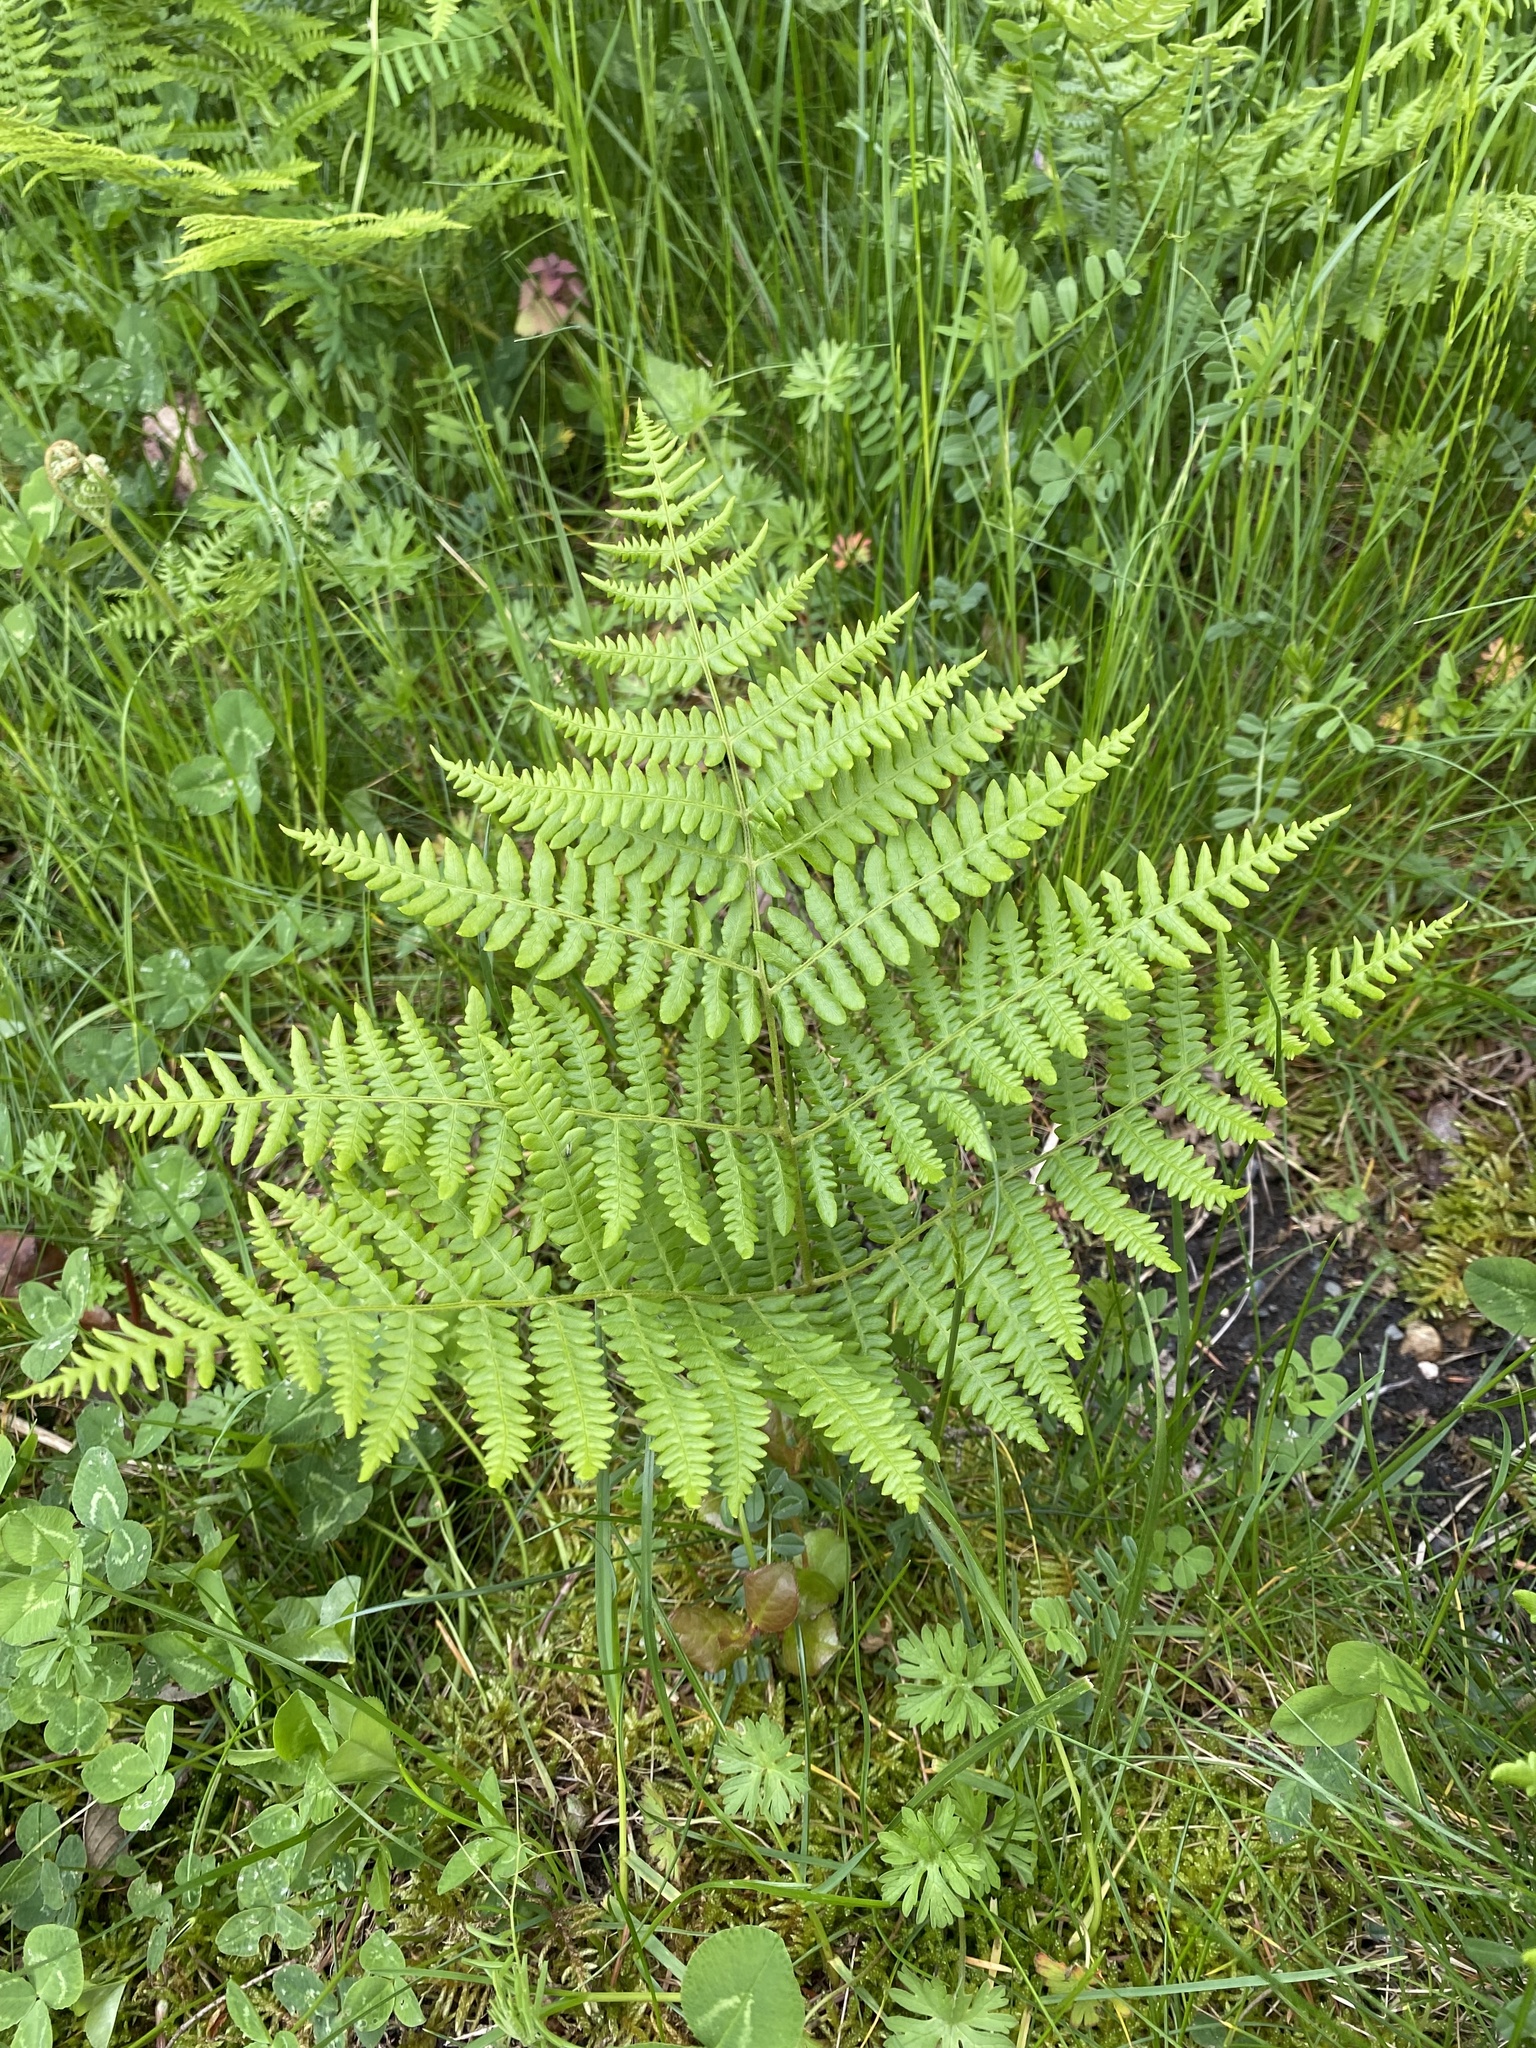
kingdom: Plantae
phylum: Tracheophyta
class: Polypodiopsida
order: Polypodiales
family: Dennstaedtiaceae
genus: Pteridium
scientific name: Pteridium aquilinum
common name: Bracken
